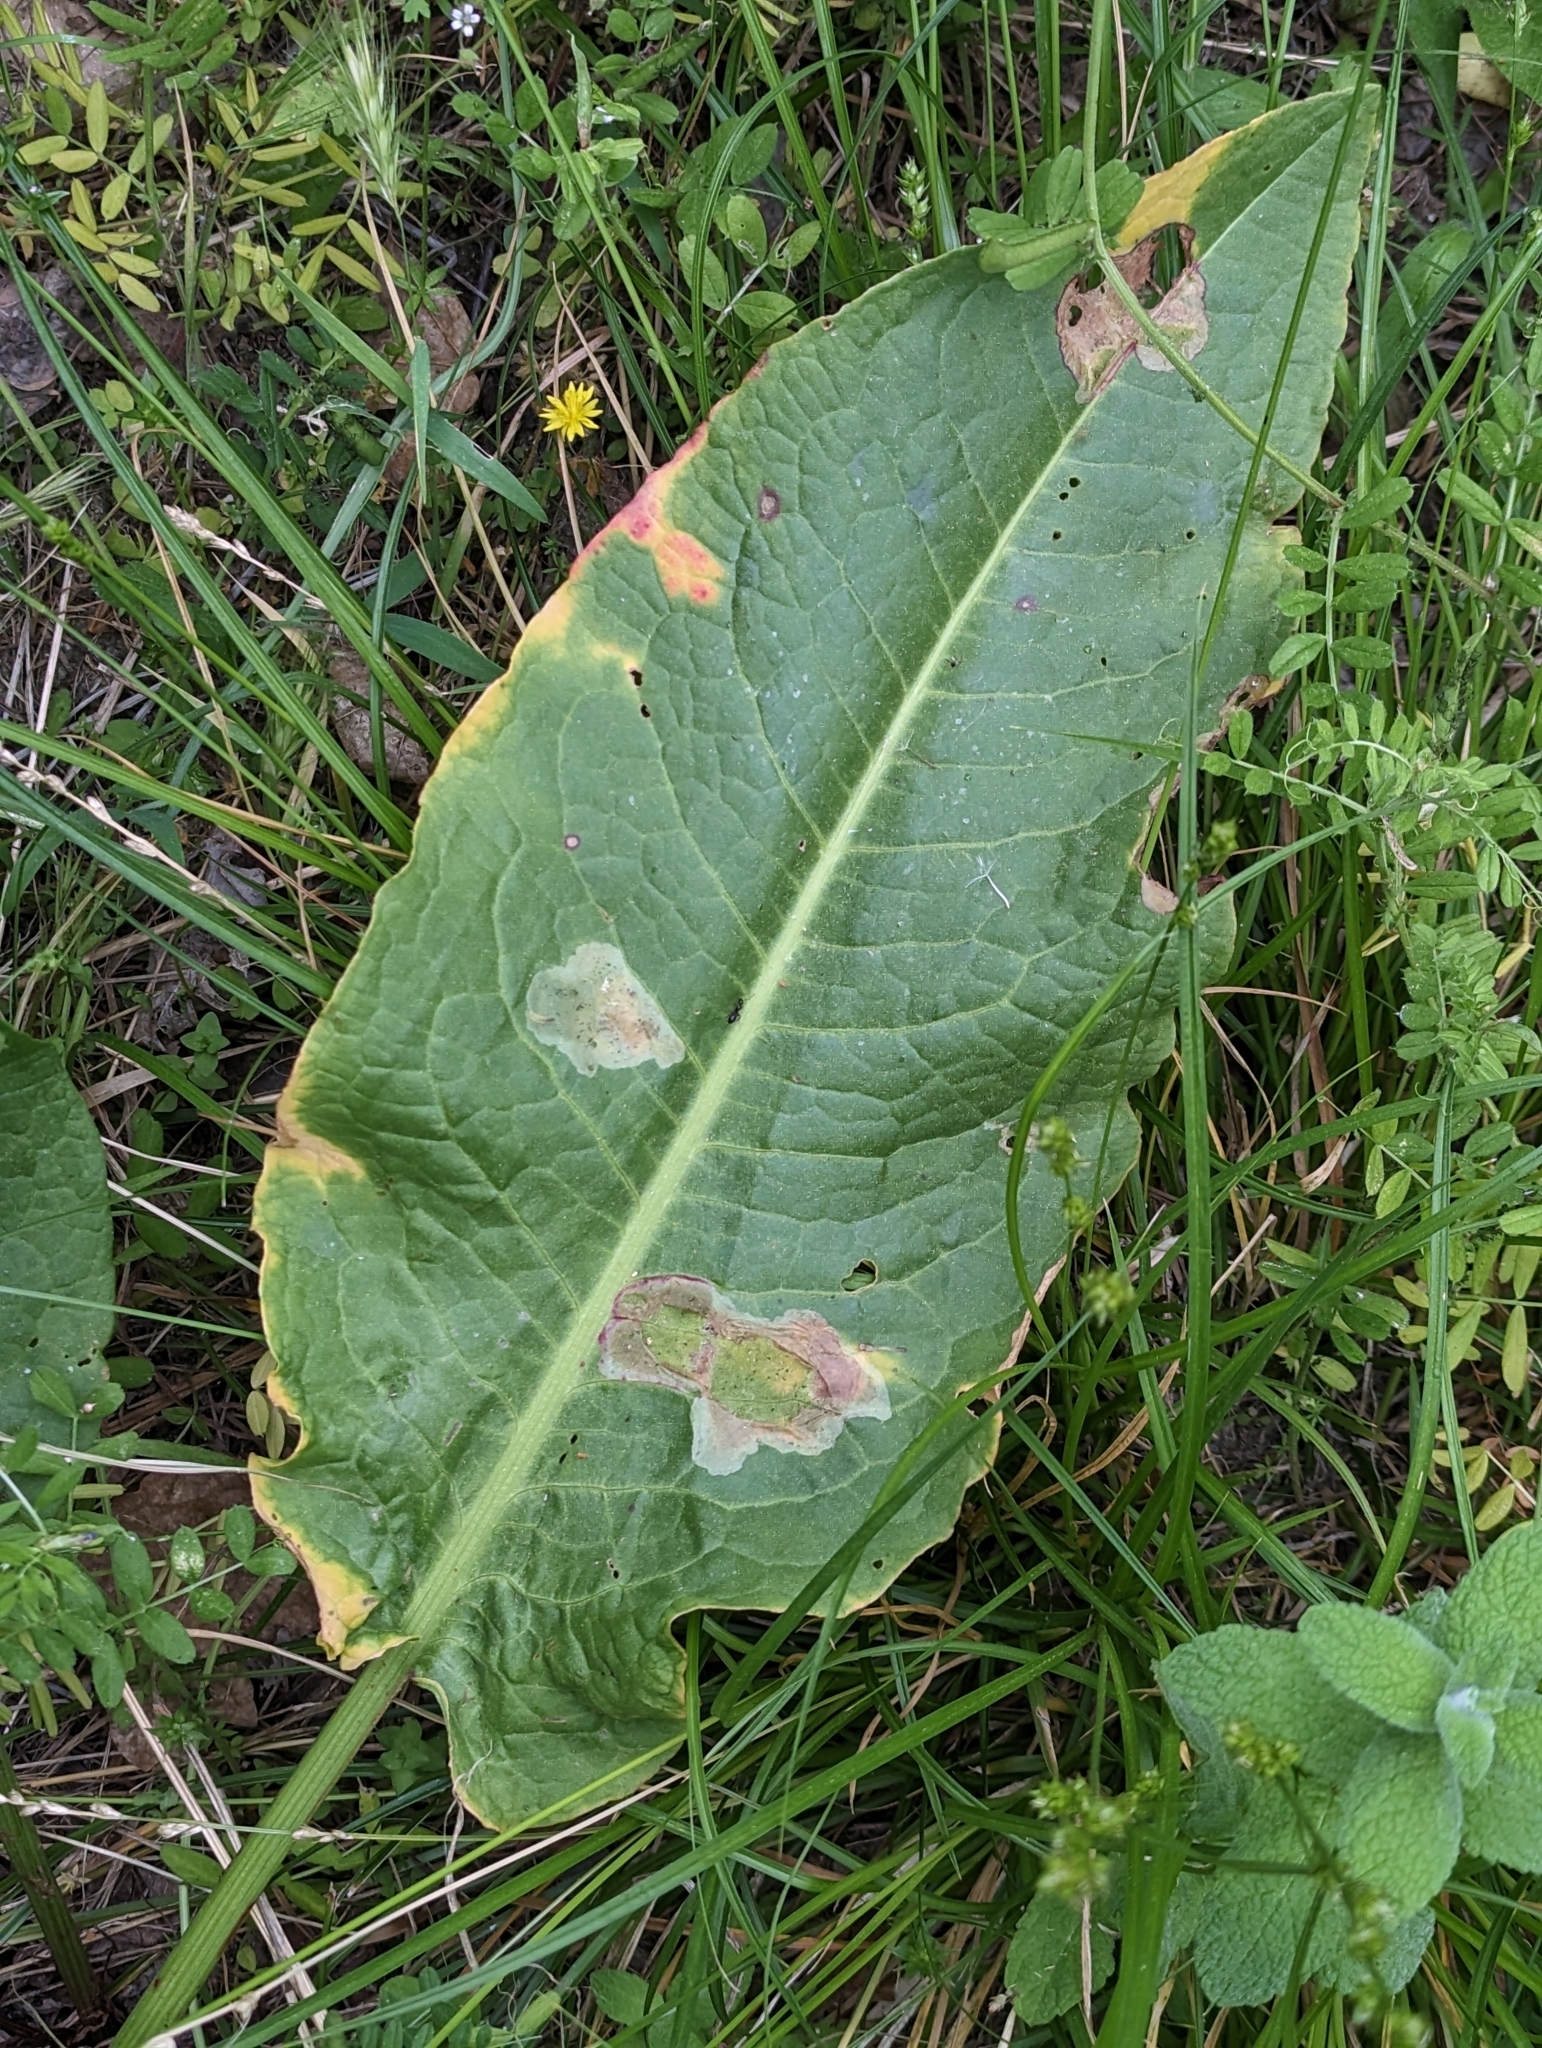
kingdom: Plantae
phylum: Tracheophyta
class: Magnoliopsida
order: Caryophyllales
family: Polygonaceae
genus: Rumex
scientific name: Rumex cristatus
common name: Greek dock
